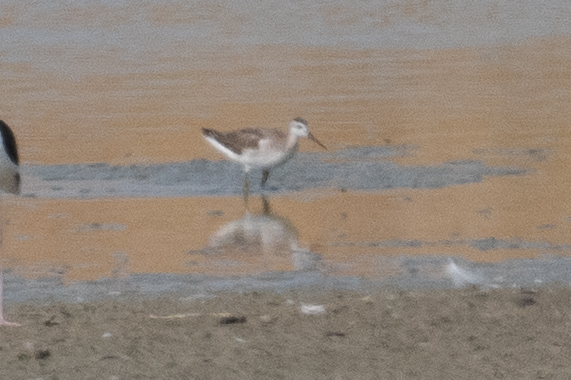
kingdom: Animalia
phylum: Chordata
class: Aves
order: Charadriiformes
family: Scolopacidae
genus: Phalaropus
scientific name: Phalaropus tricolor
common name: Wilson's phalarope
